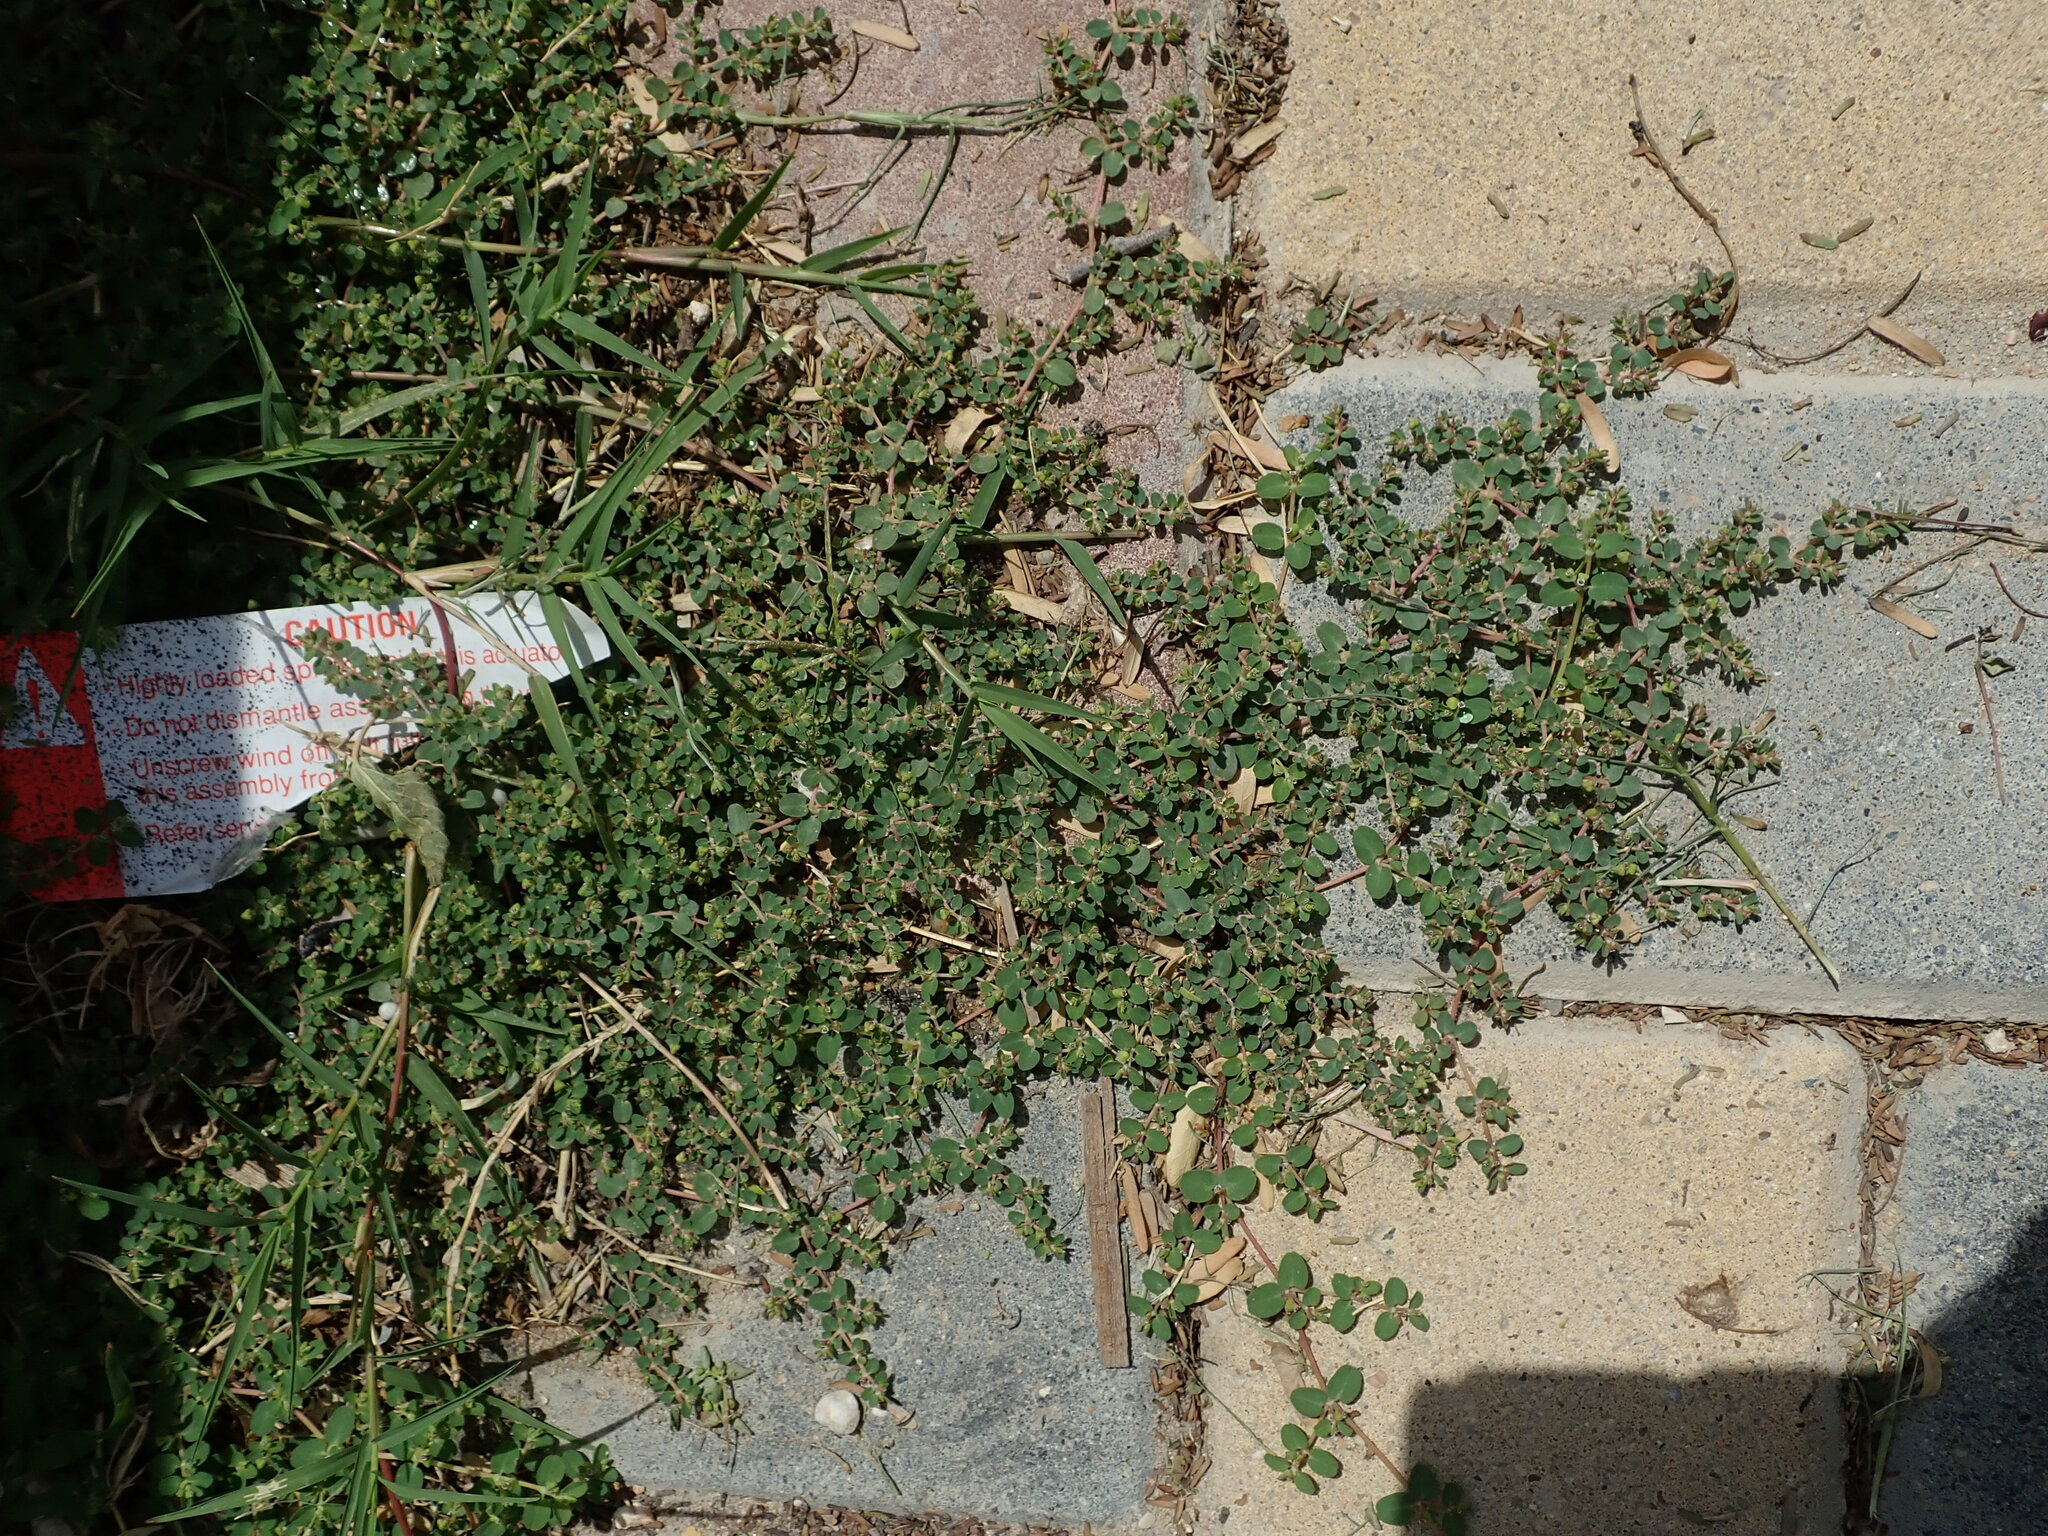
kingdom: Plantae
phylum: Tracheophyta
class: Magnoliopsida
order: Malpighiales
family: Euphorbiaceae
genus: Euphorbia
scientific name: Euphorbia serpens
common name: Matted sandmat
